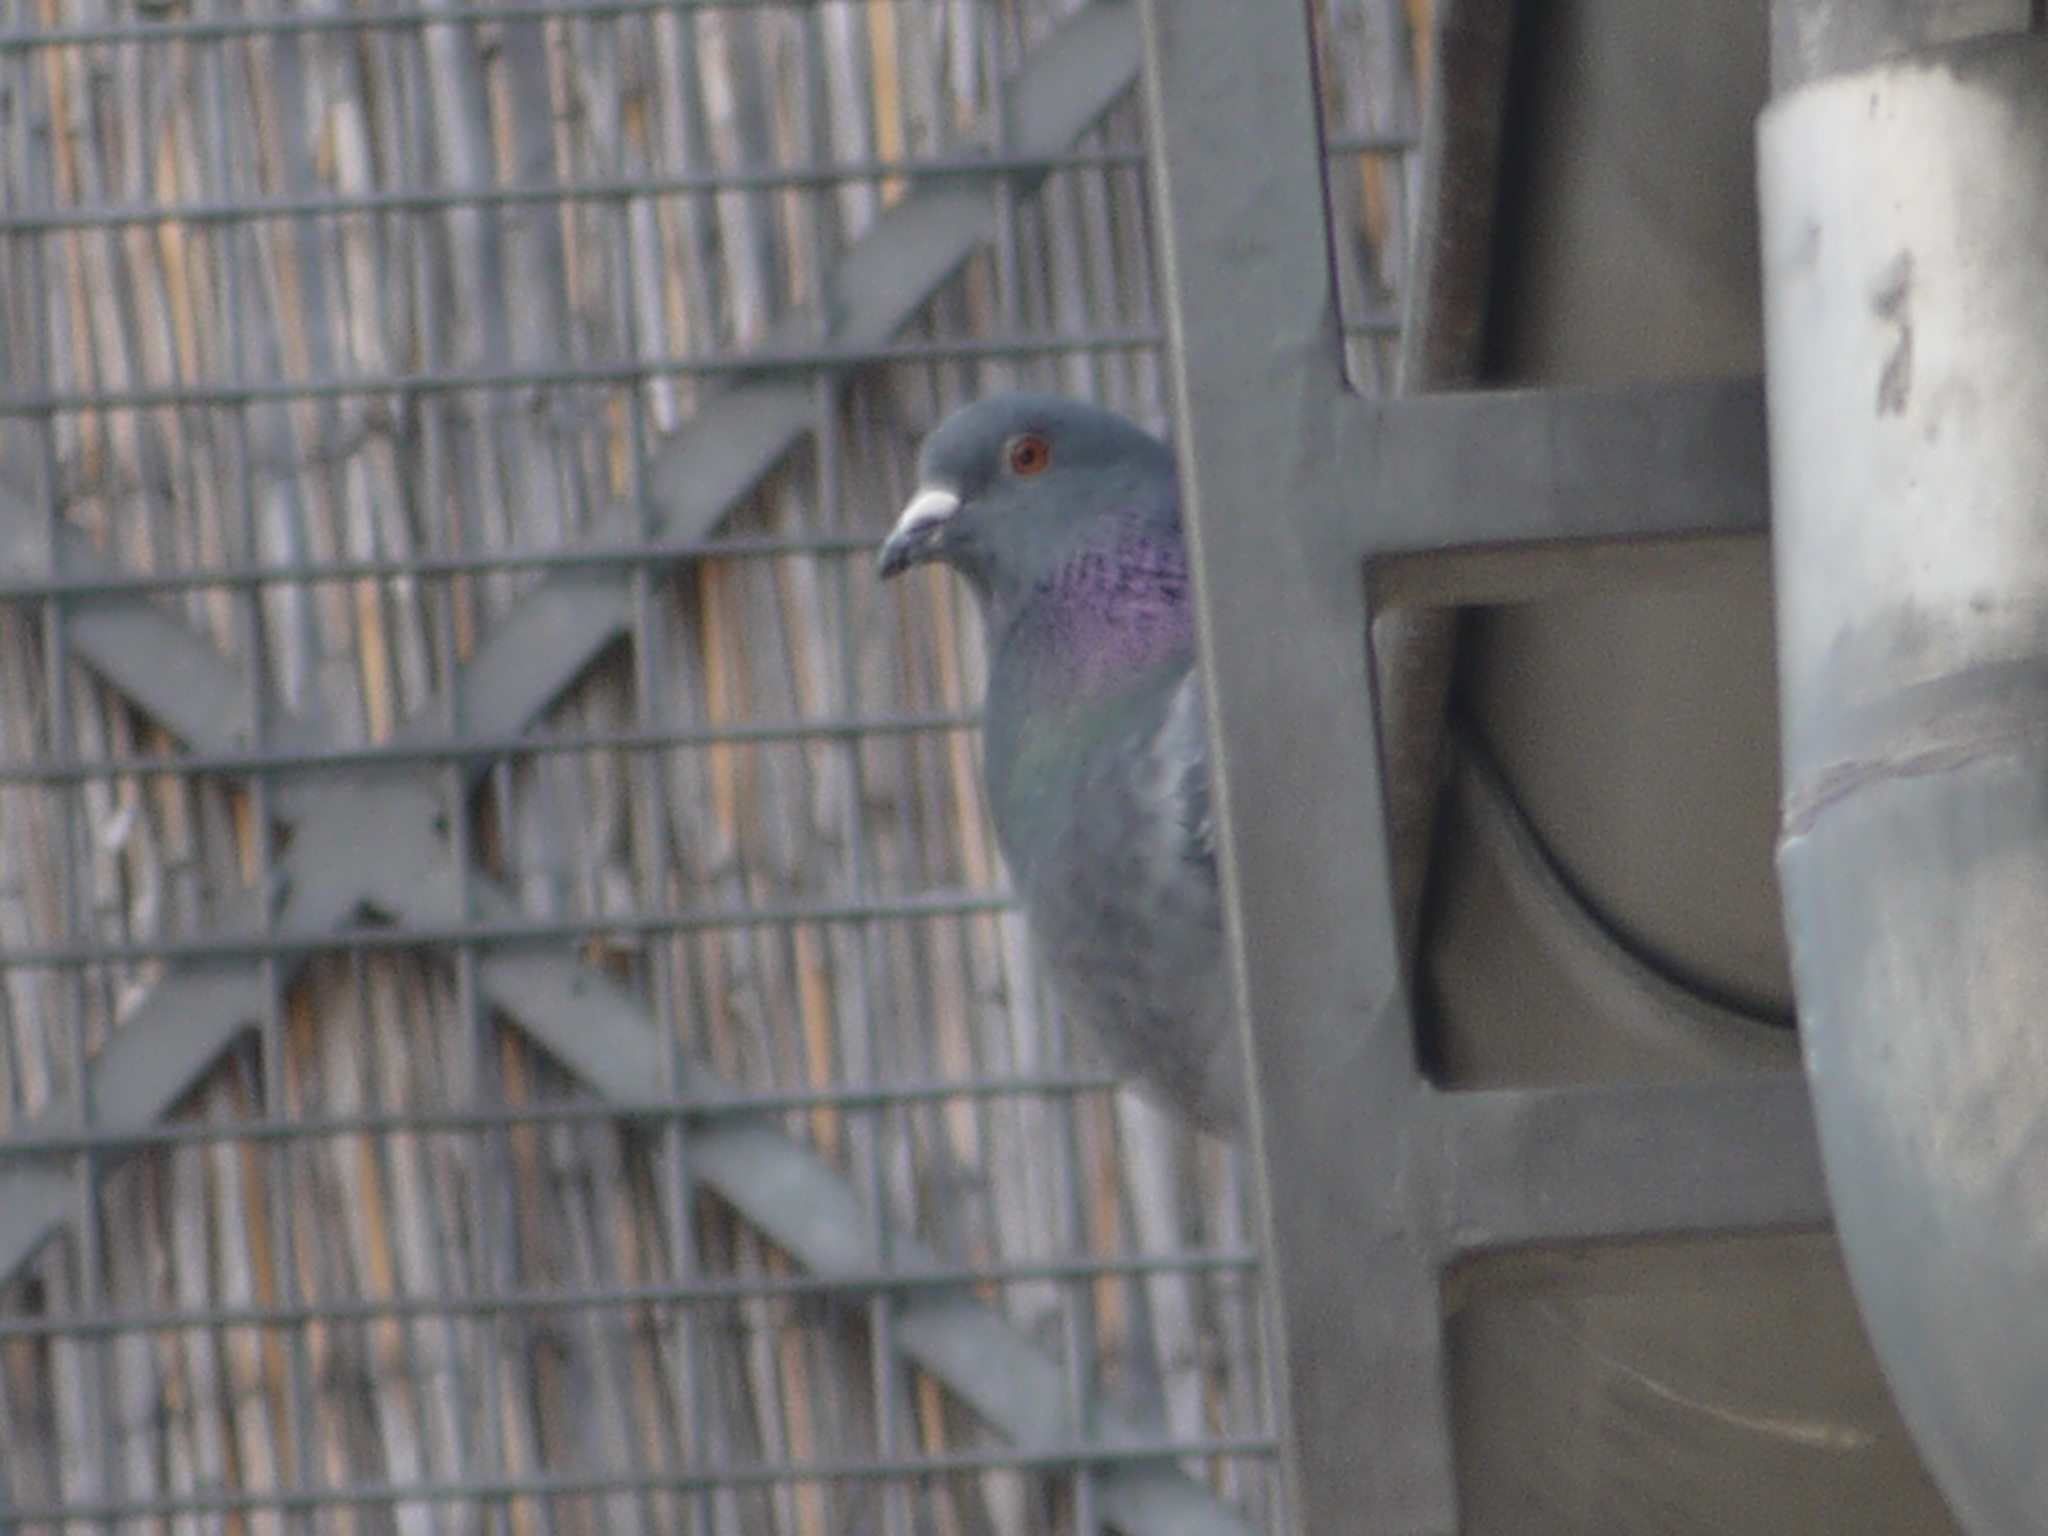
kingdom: Animalia
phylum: Chordata
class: Aves
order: Columbiformes
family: Columbidae
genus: Columba
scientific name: Columba livia
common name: Rock pigeon
